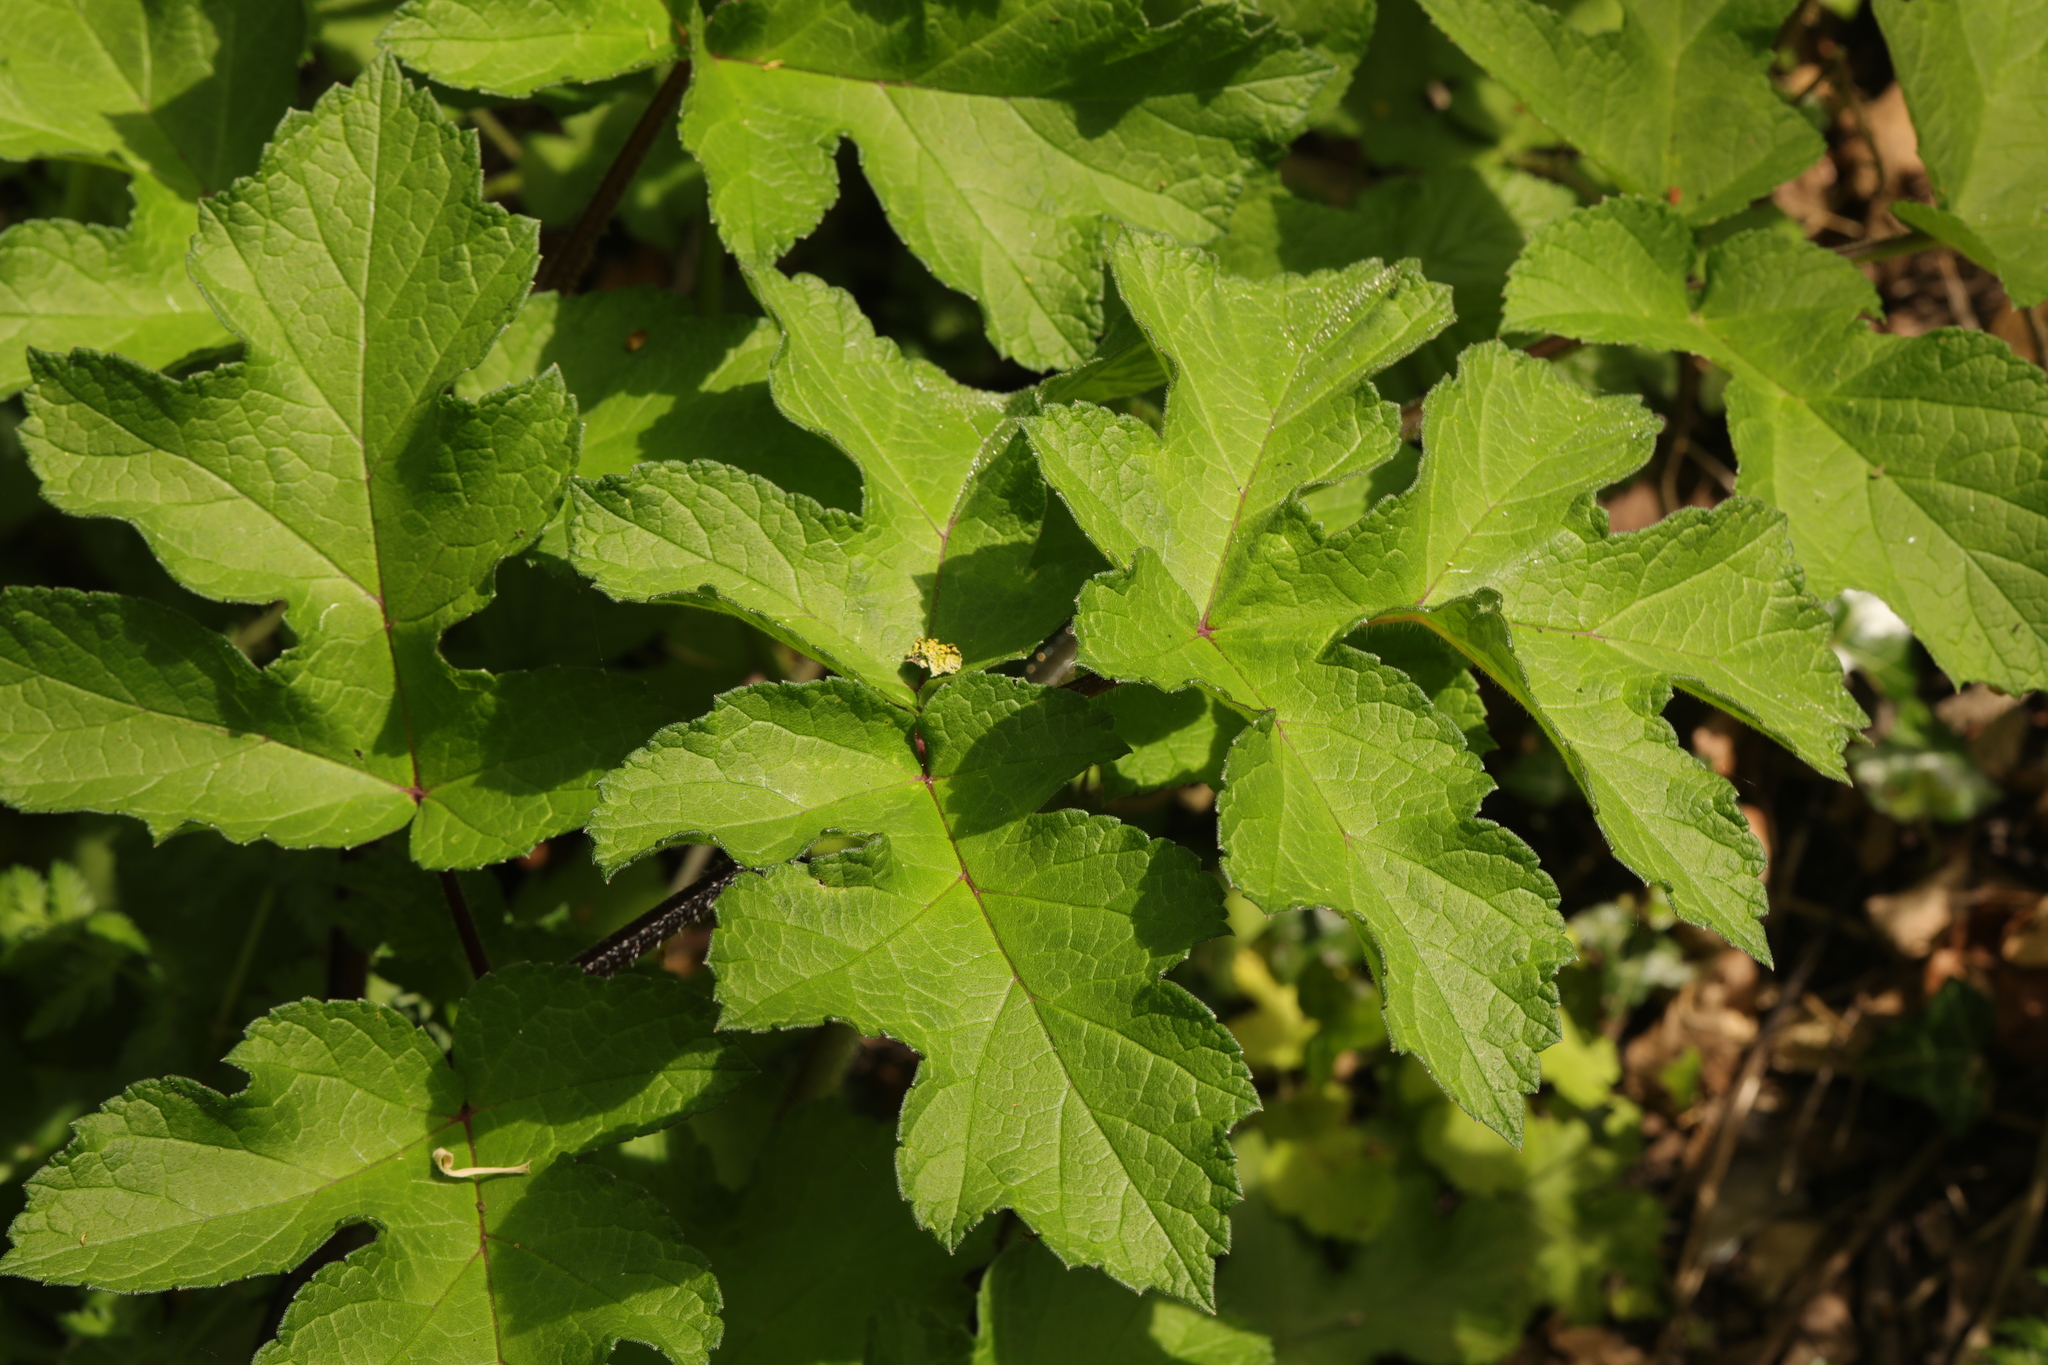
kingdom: Plantae
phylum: Tracheophyta
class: Magnoliopsida
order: Apiales
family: Apiaceae
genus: Heracleum
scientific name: Heracleum sphondylium
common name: Hogweed
